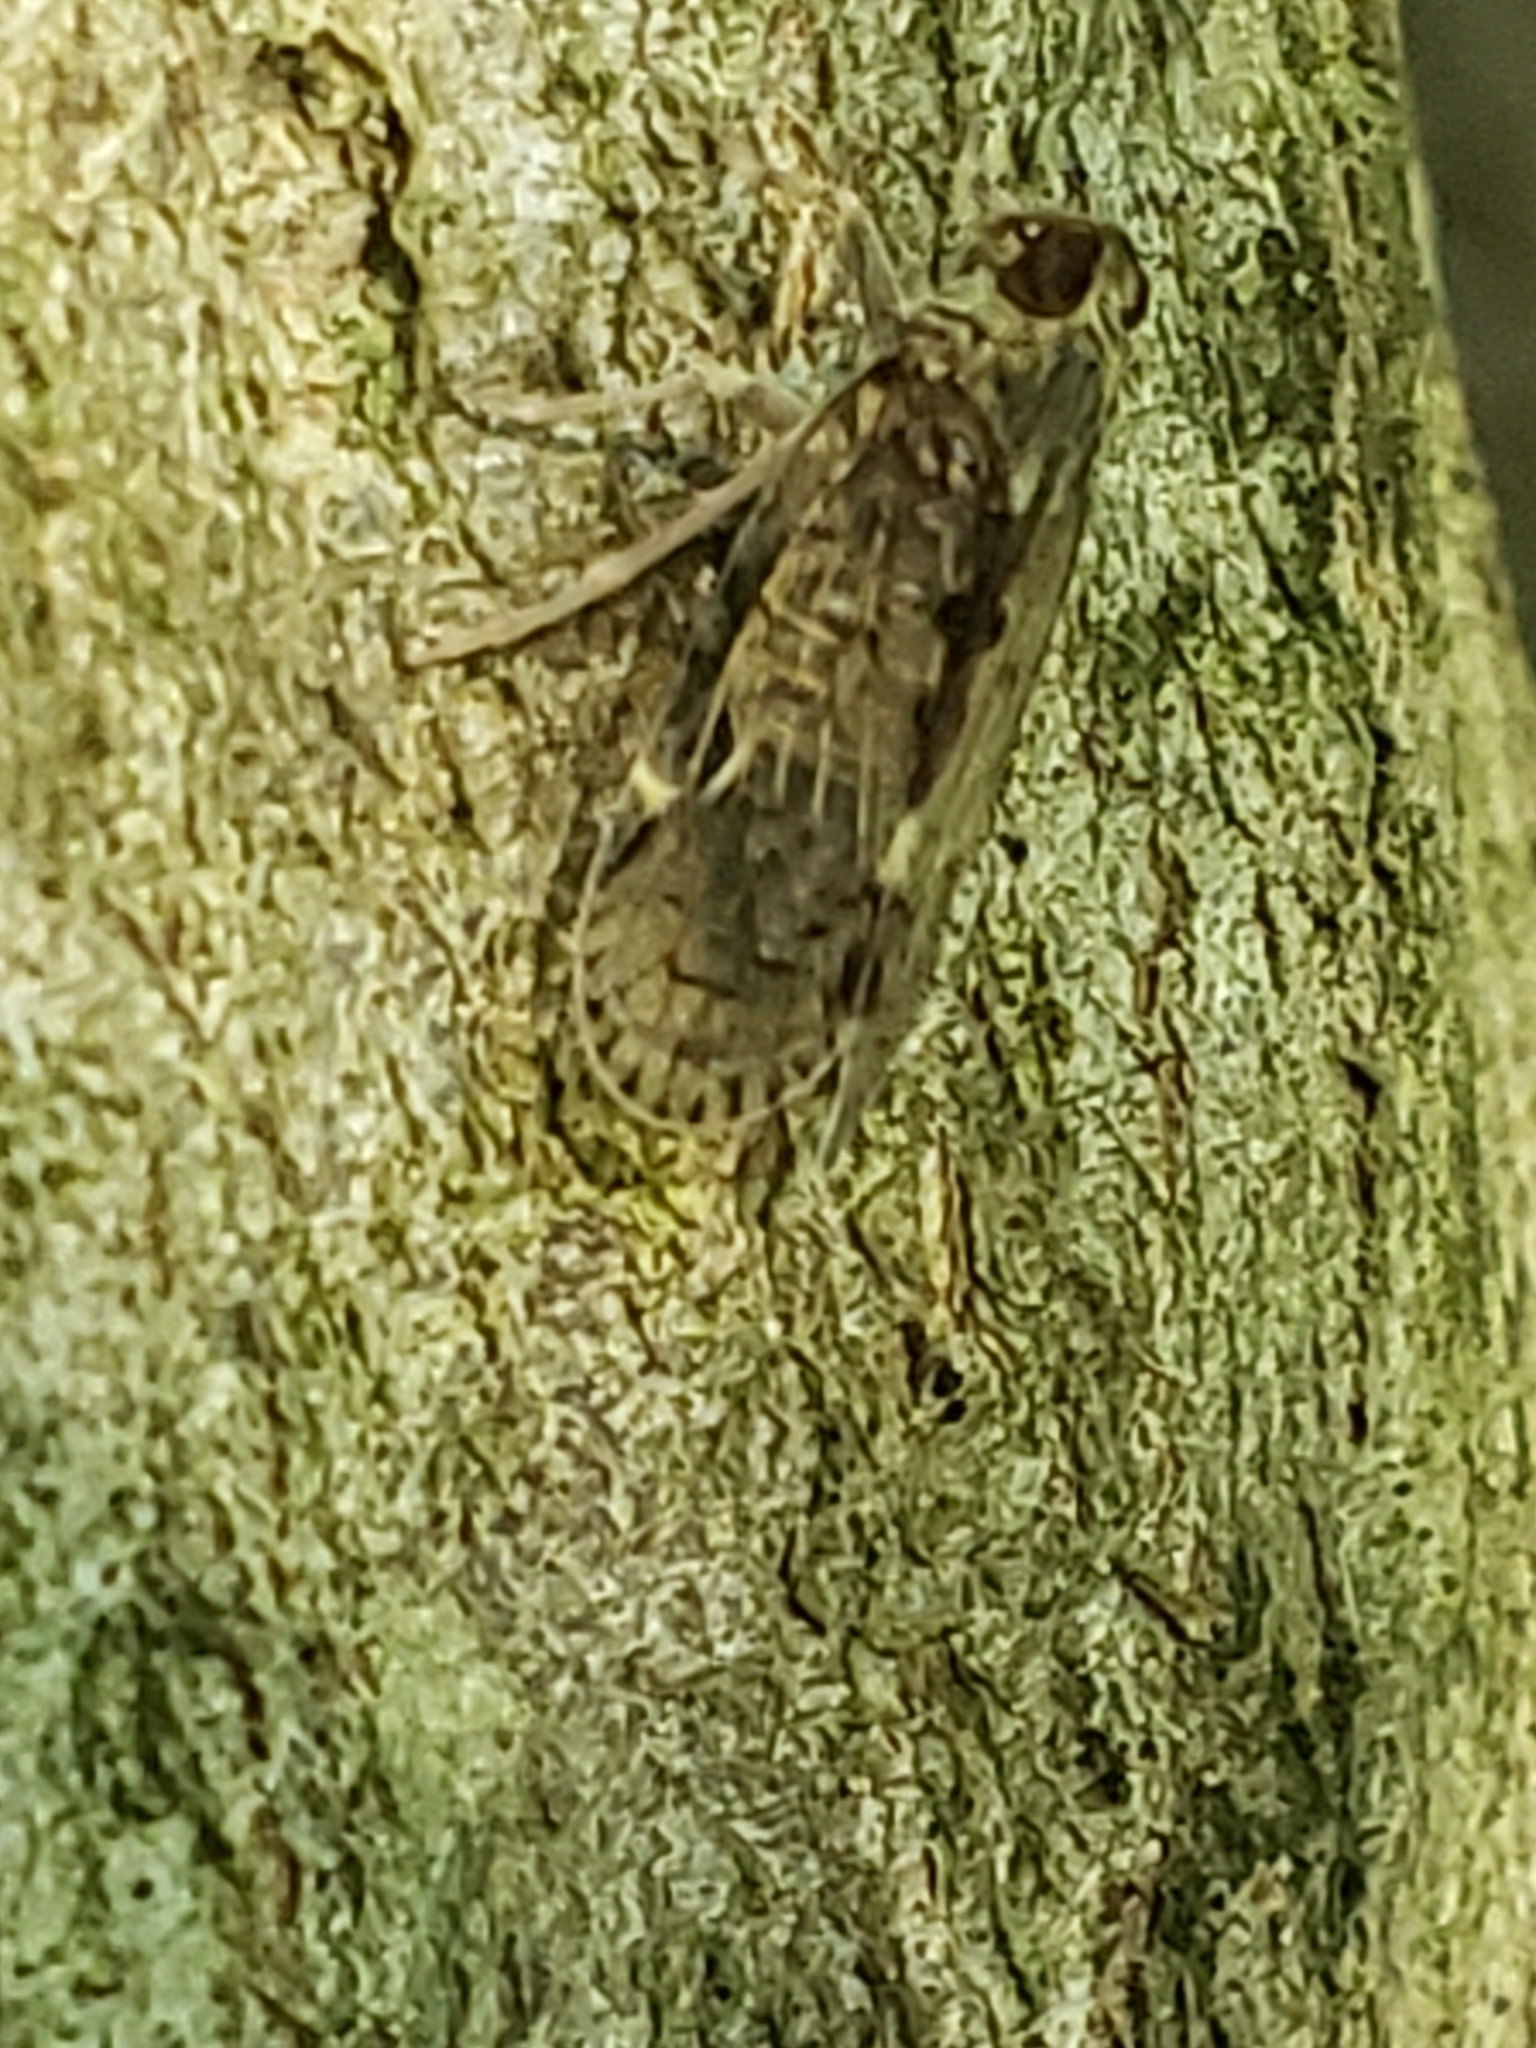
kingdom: Animalia
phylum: Arthropoda
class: Insecta
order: Hemiptera
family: Cixiidae
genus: Melanoliarus
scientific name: Melanoliarus placitus
